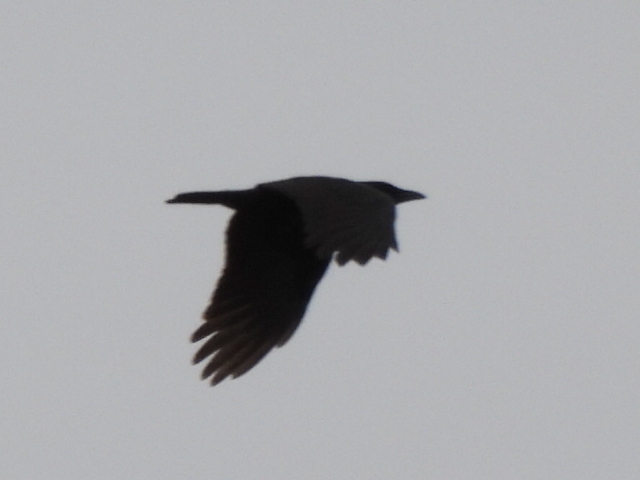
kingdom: Animalia
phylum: Chordata
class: Aves
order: Passeriformes
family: Corvidae
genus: Corvus
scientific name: Corvus brachyrhynchos
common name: American crow
